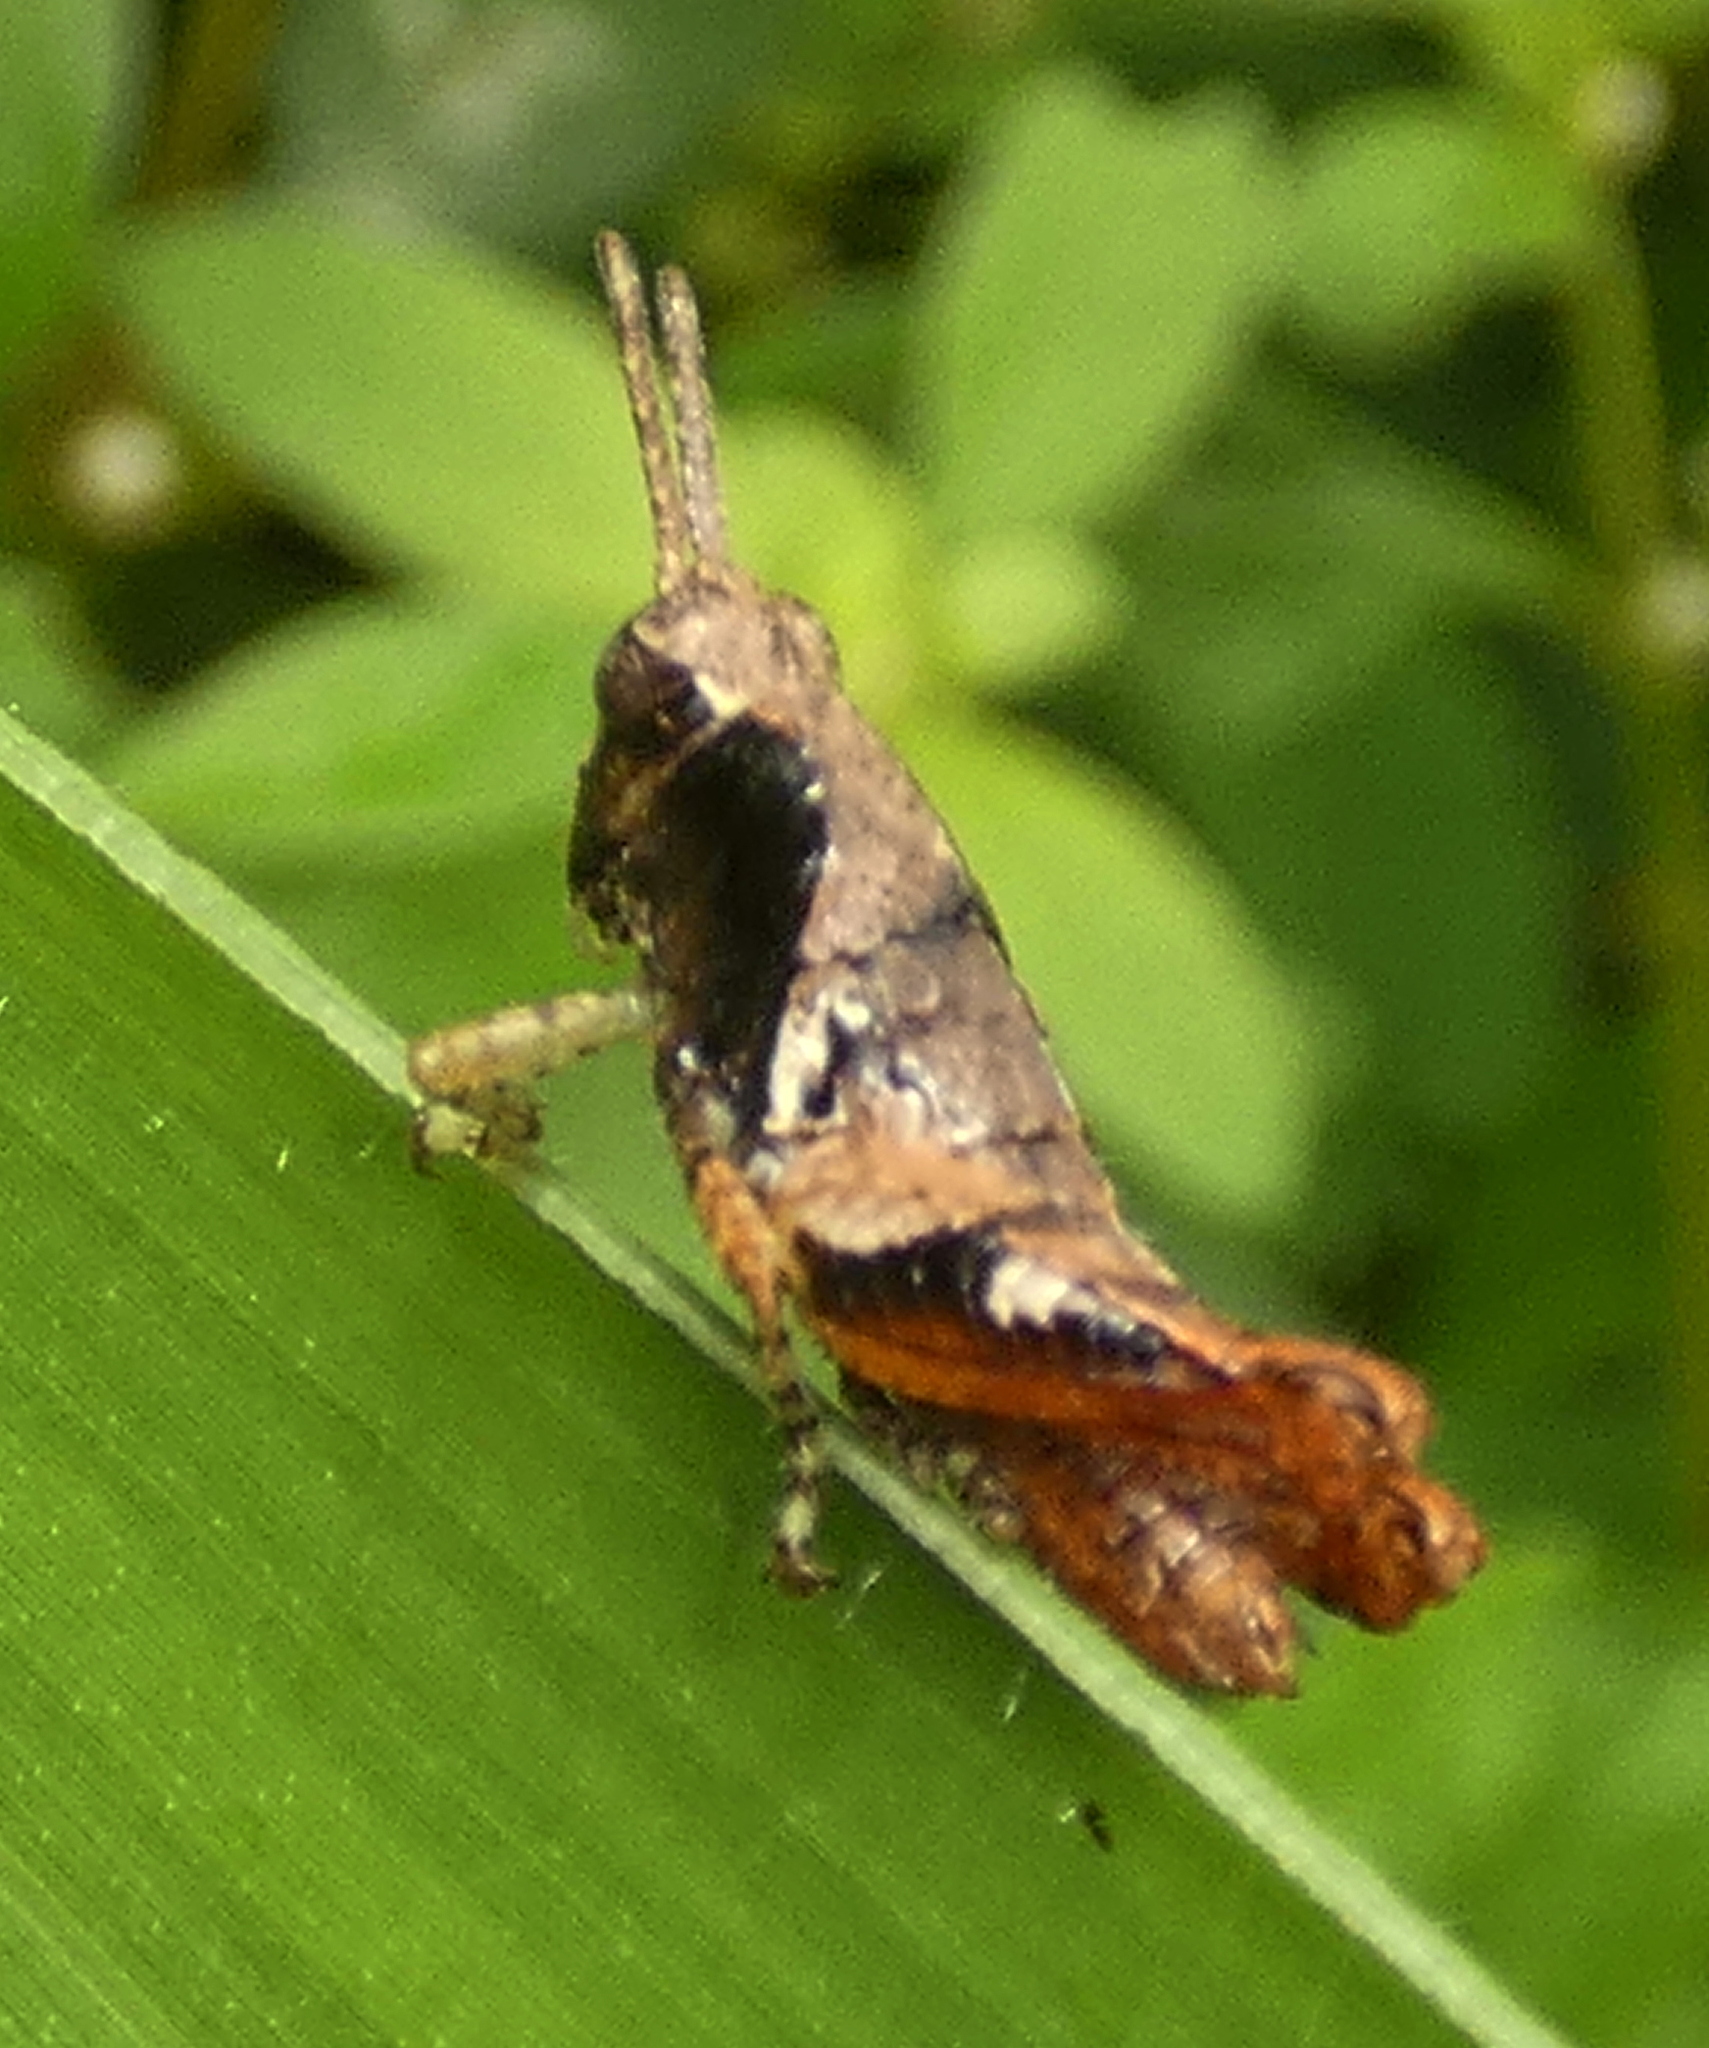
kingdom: Animalia
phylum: Arthropoda
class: Insecta
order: Orthoptera
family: Acrididae
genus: Eujivarus
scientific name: Eujivarus meridionalis
